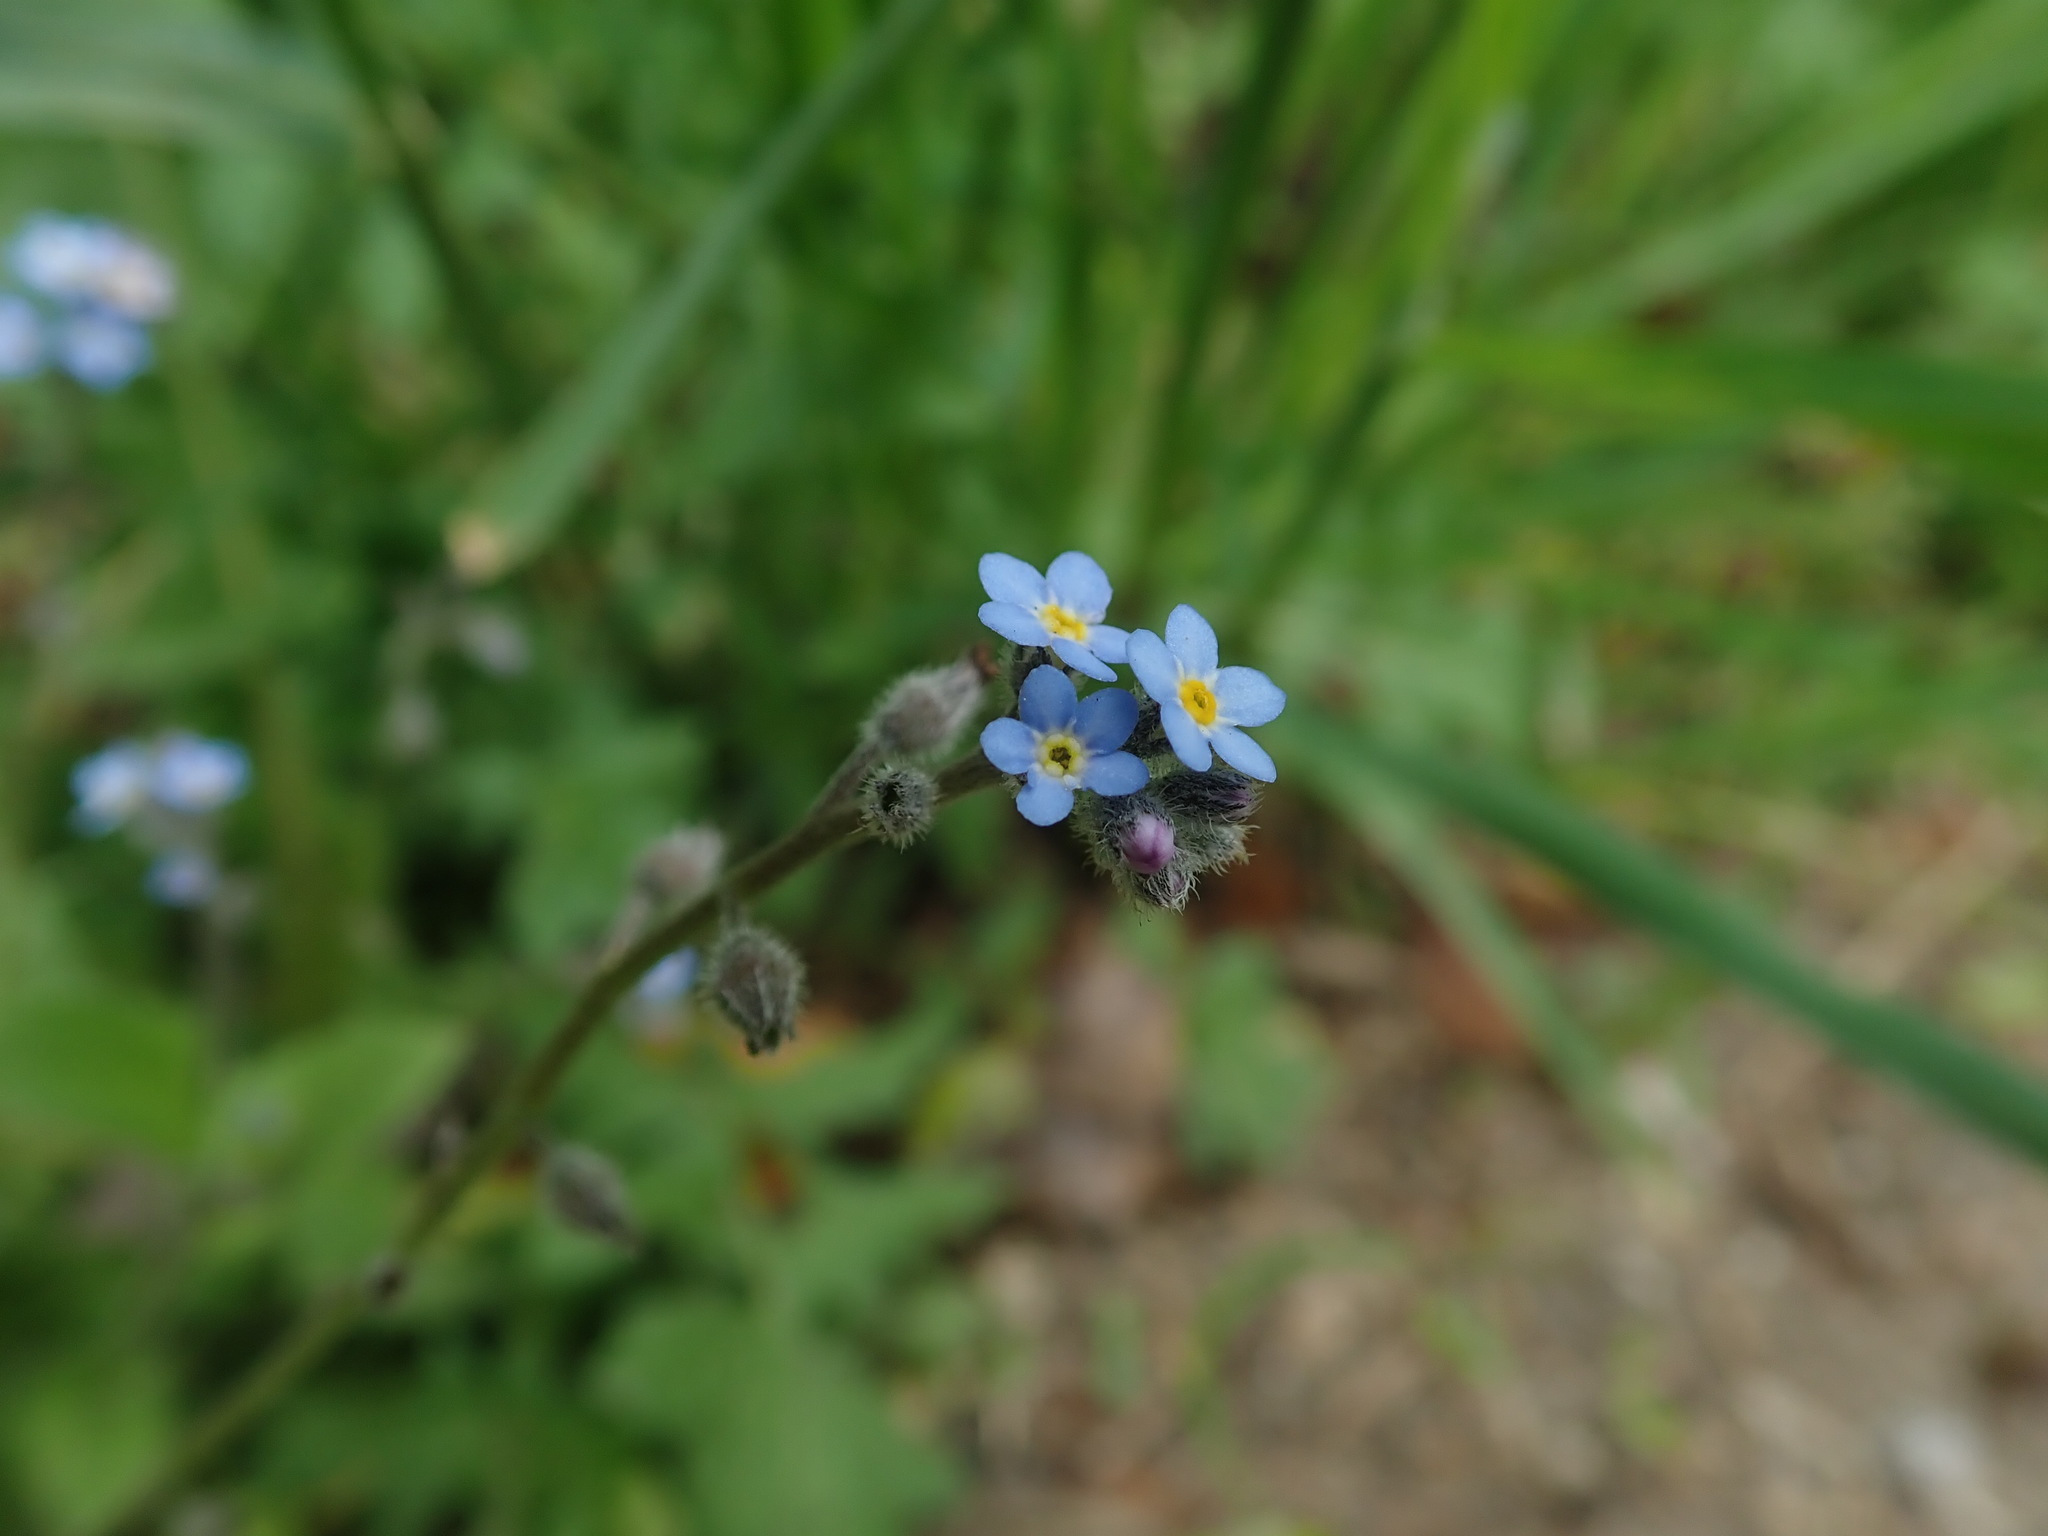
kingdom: Plantae
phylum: Tracheophyta
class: Magnoliopsida
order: Boraginales
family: Boraginaceae
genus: Myosotis
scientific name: Myosotis arvensis
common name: Field forget-me-not
